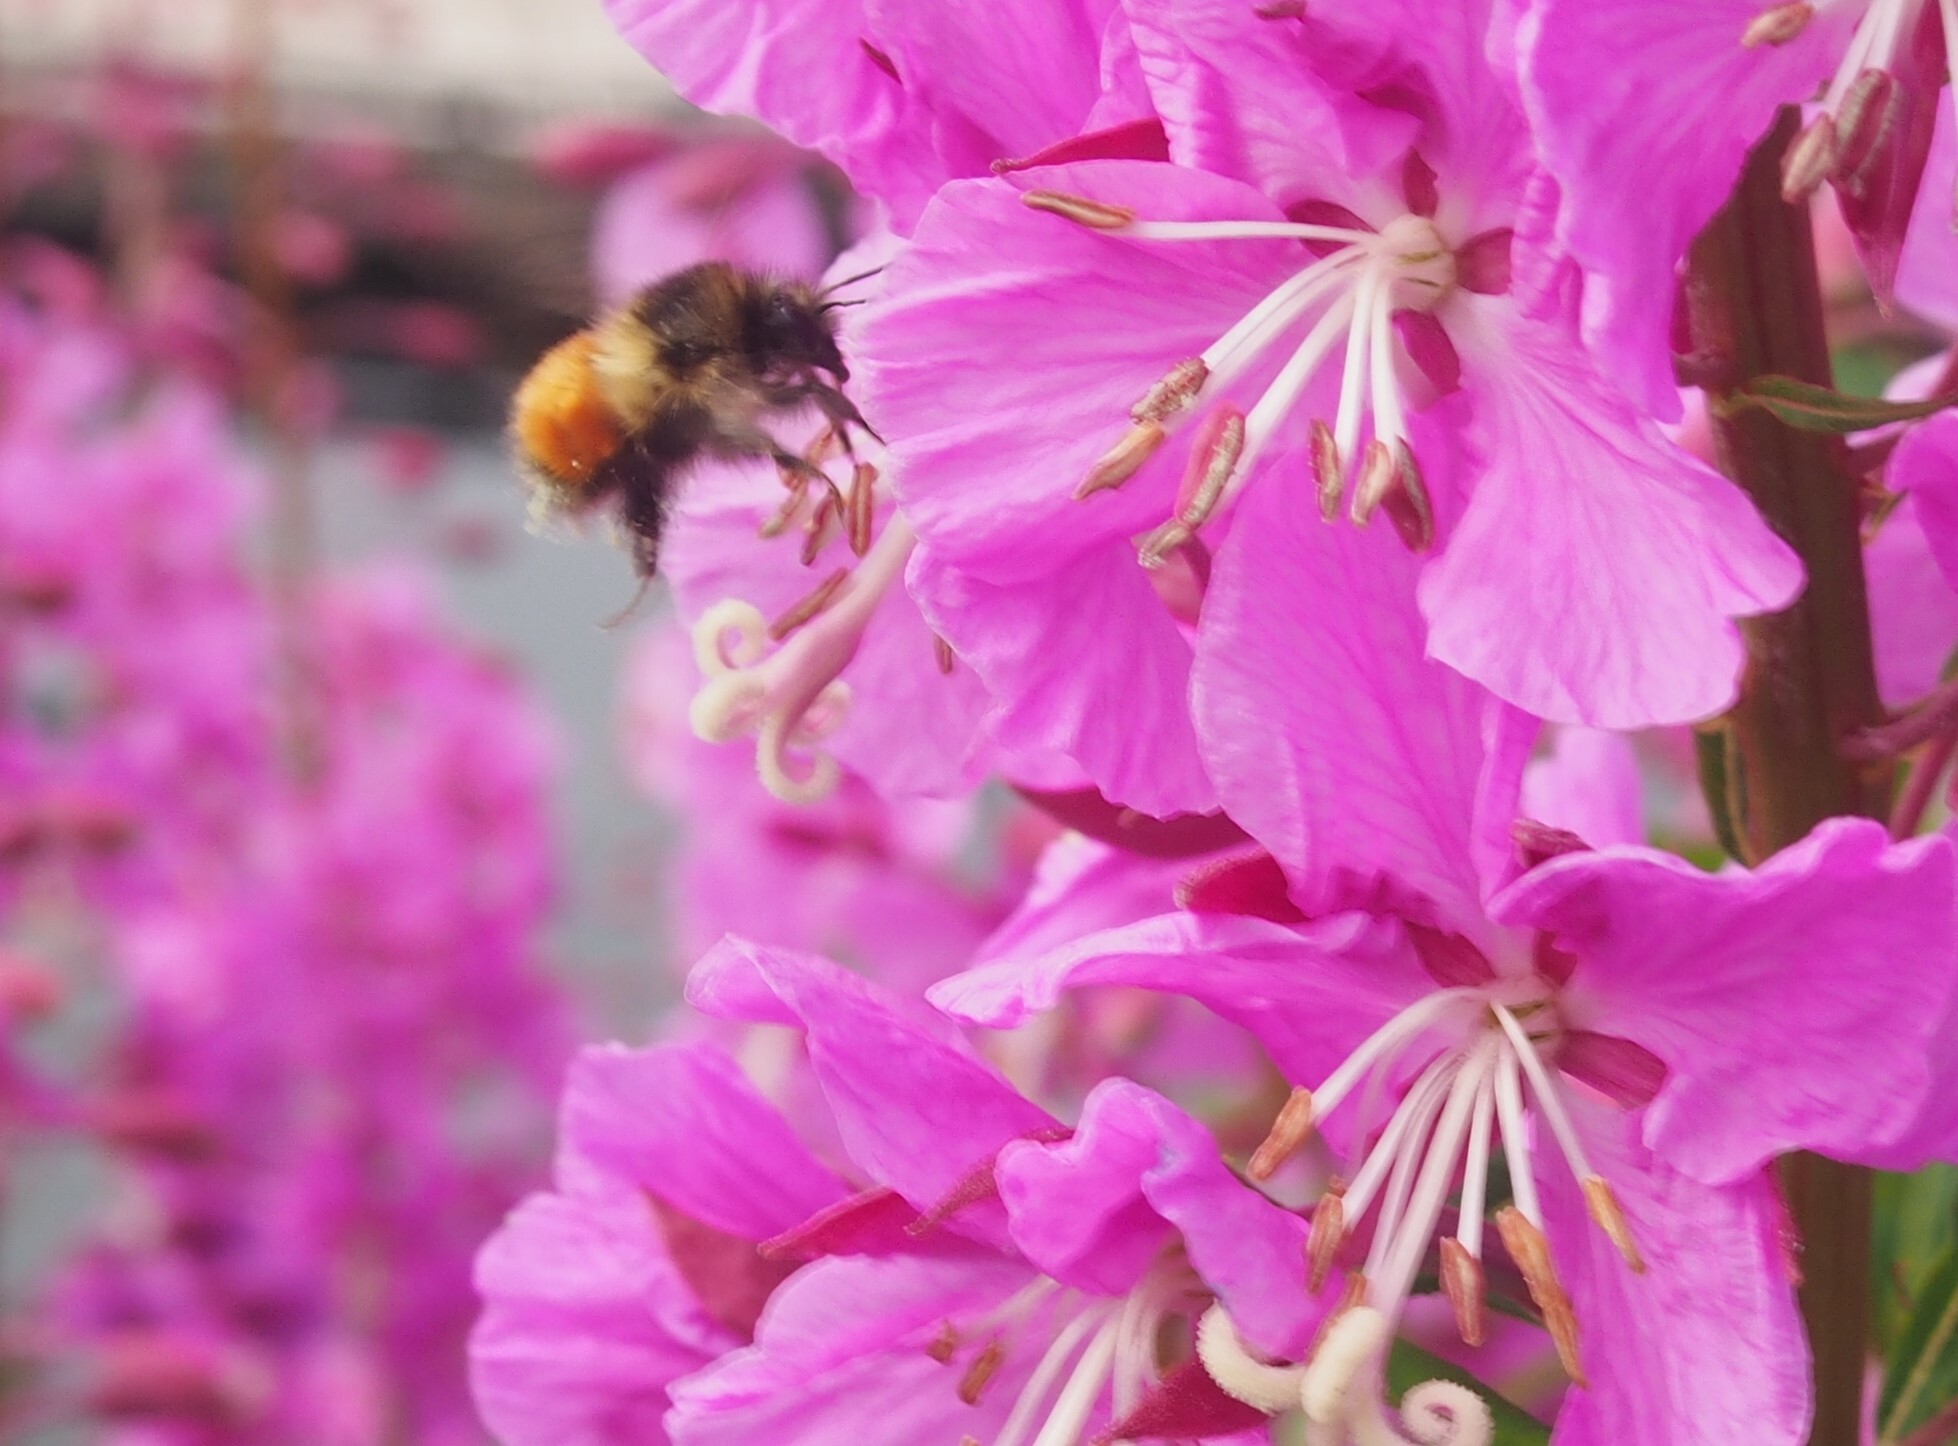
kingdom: Animalia
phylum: Arthropoda
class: Insecta
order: Hymenoptera
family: Apidae
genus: Bombus
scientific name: Bombus melanopygus
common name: Black tail bumble bee
